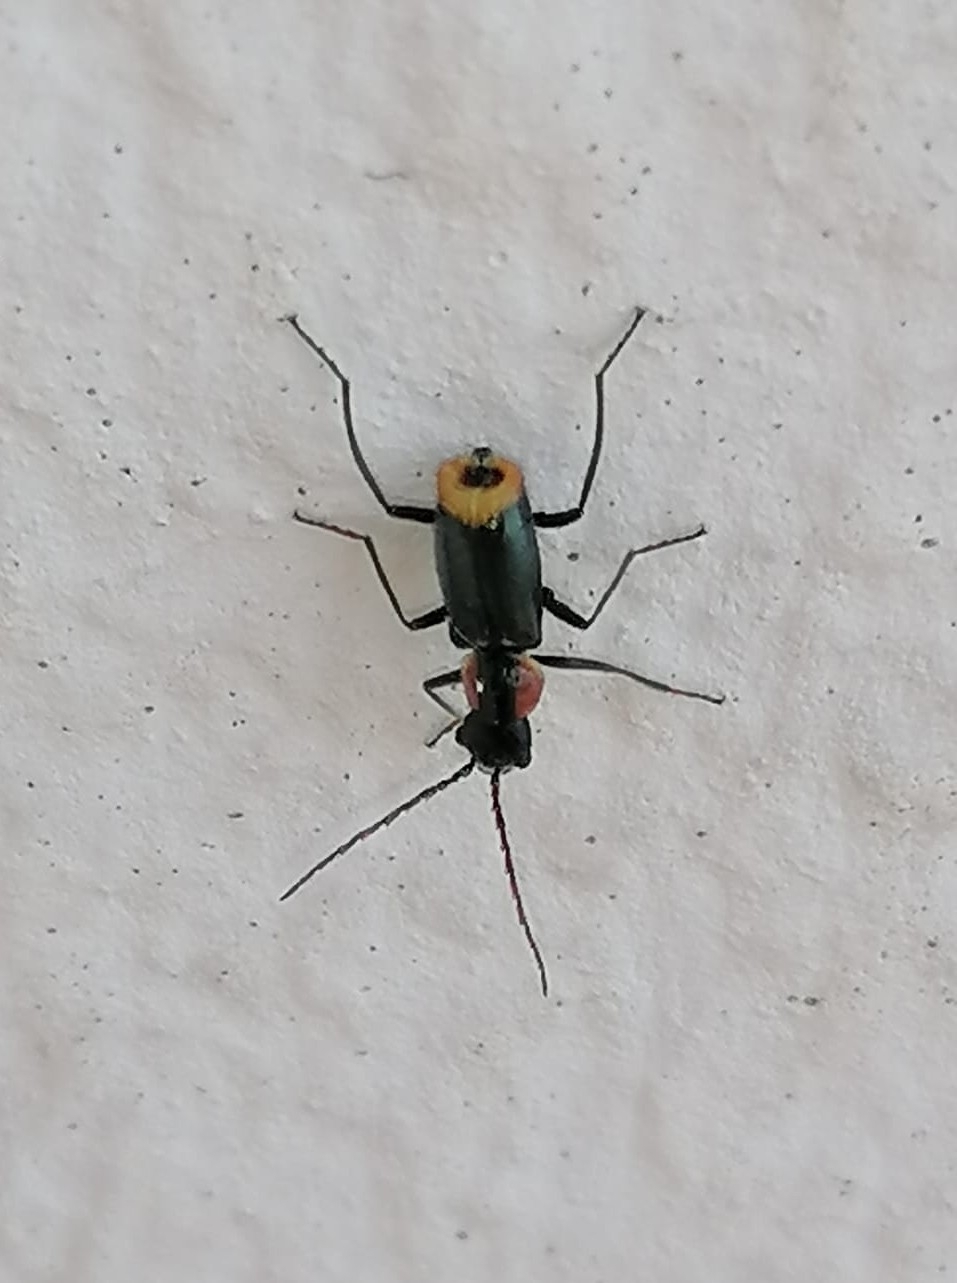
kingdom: Animalia
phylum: Arthropoda
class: Insecta
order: Coleoptera
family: Melyridae
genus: Axinotarsus
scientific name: Axinotarsus pulicarius
